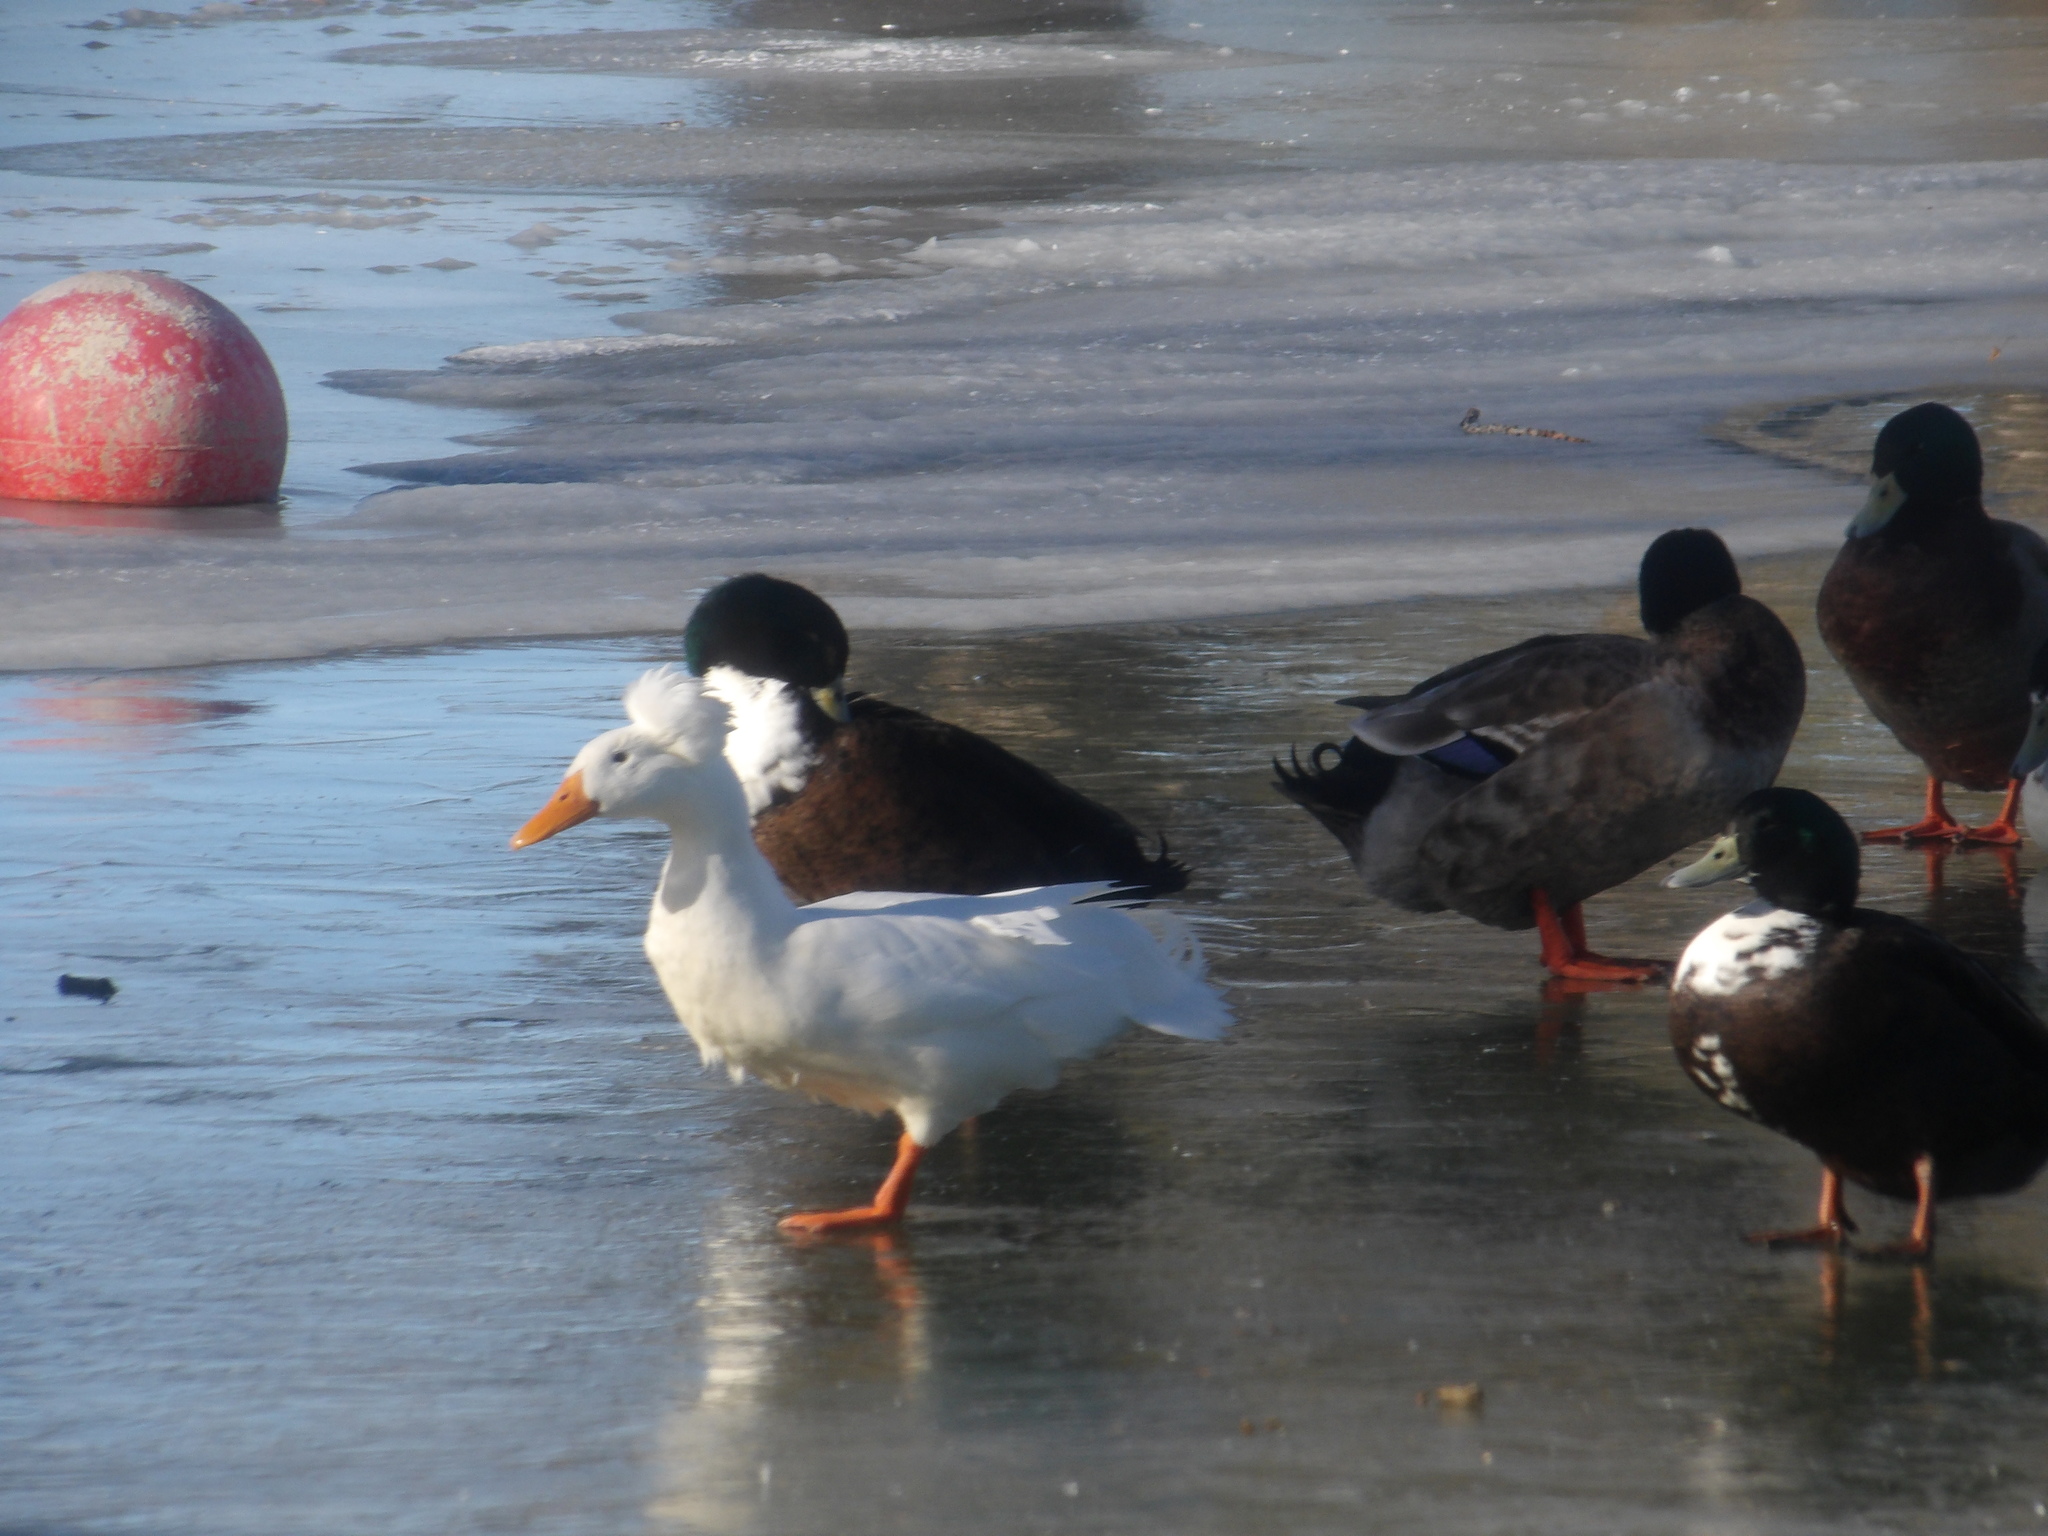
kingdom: Animalia
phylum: Chordata
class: Aves
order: Anseriformes
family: Anatidae
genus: Anas
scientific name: Anas platyrhynchos
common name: Mallard
